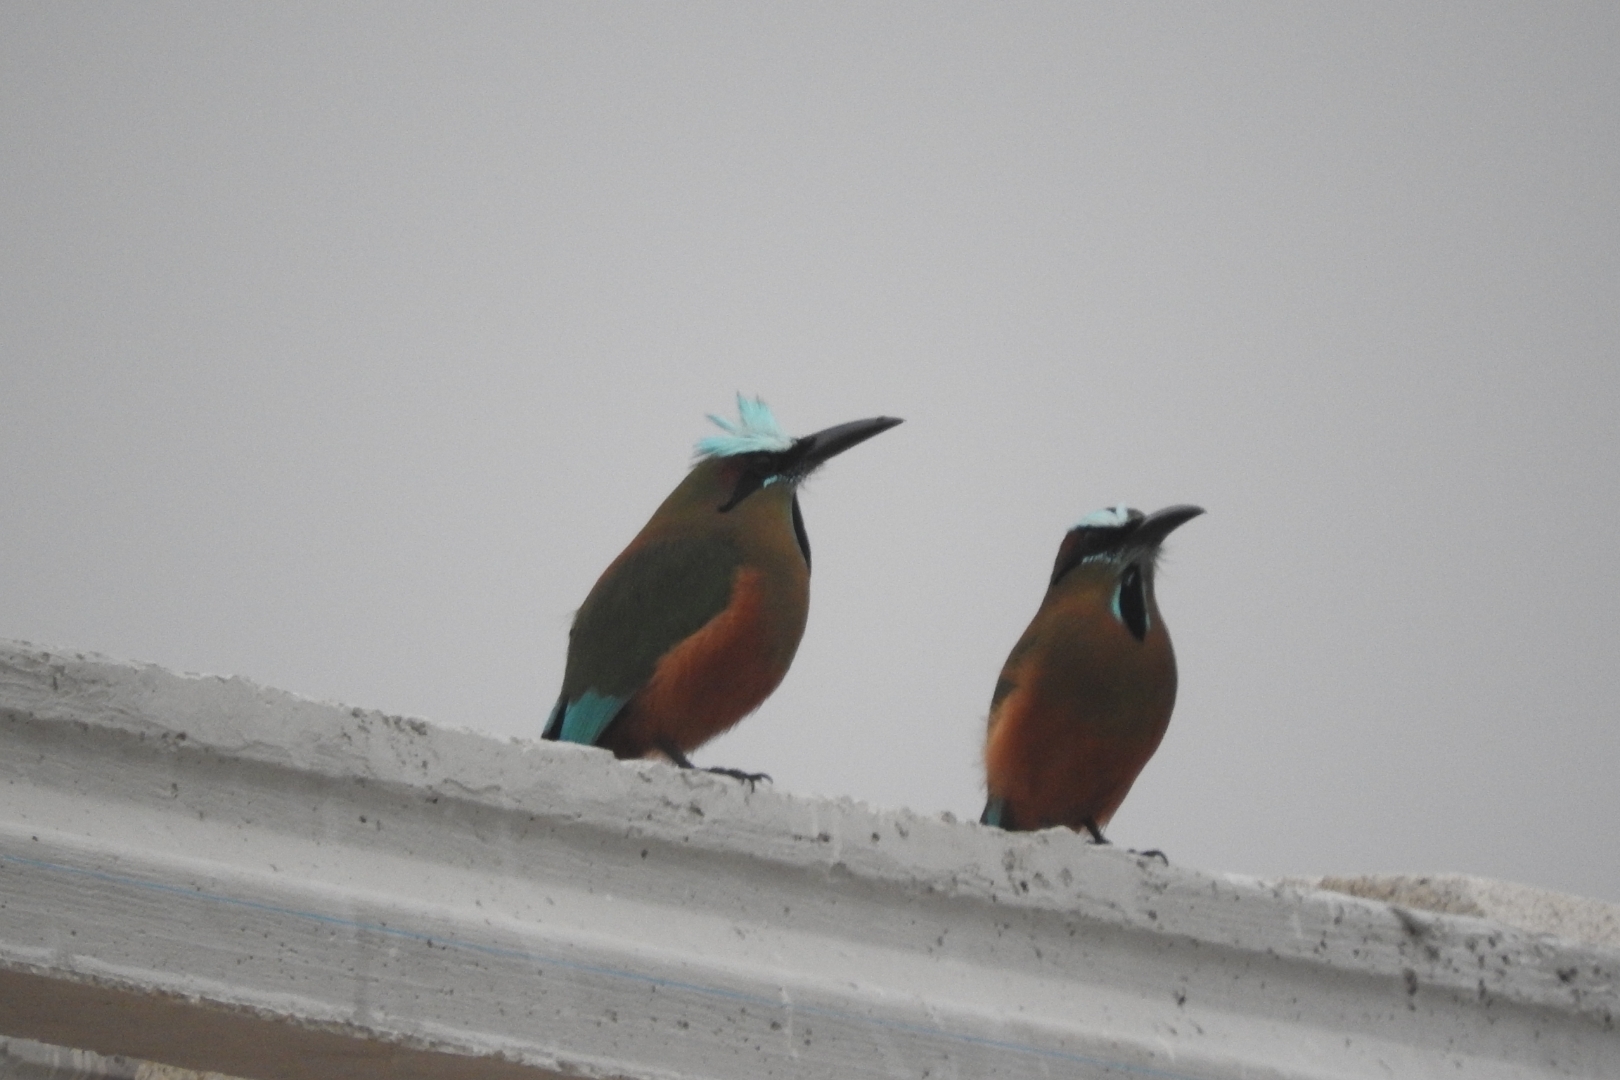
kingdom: Animalia
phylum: Chordata
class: Aves
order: Coraciiformes
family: Momotidae
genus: Eumomota
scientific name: Eumomota superciliosa
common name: Turquoise-browed motmot
